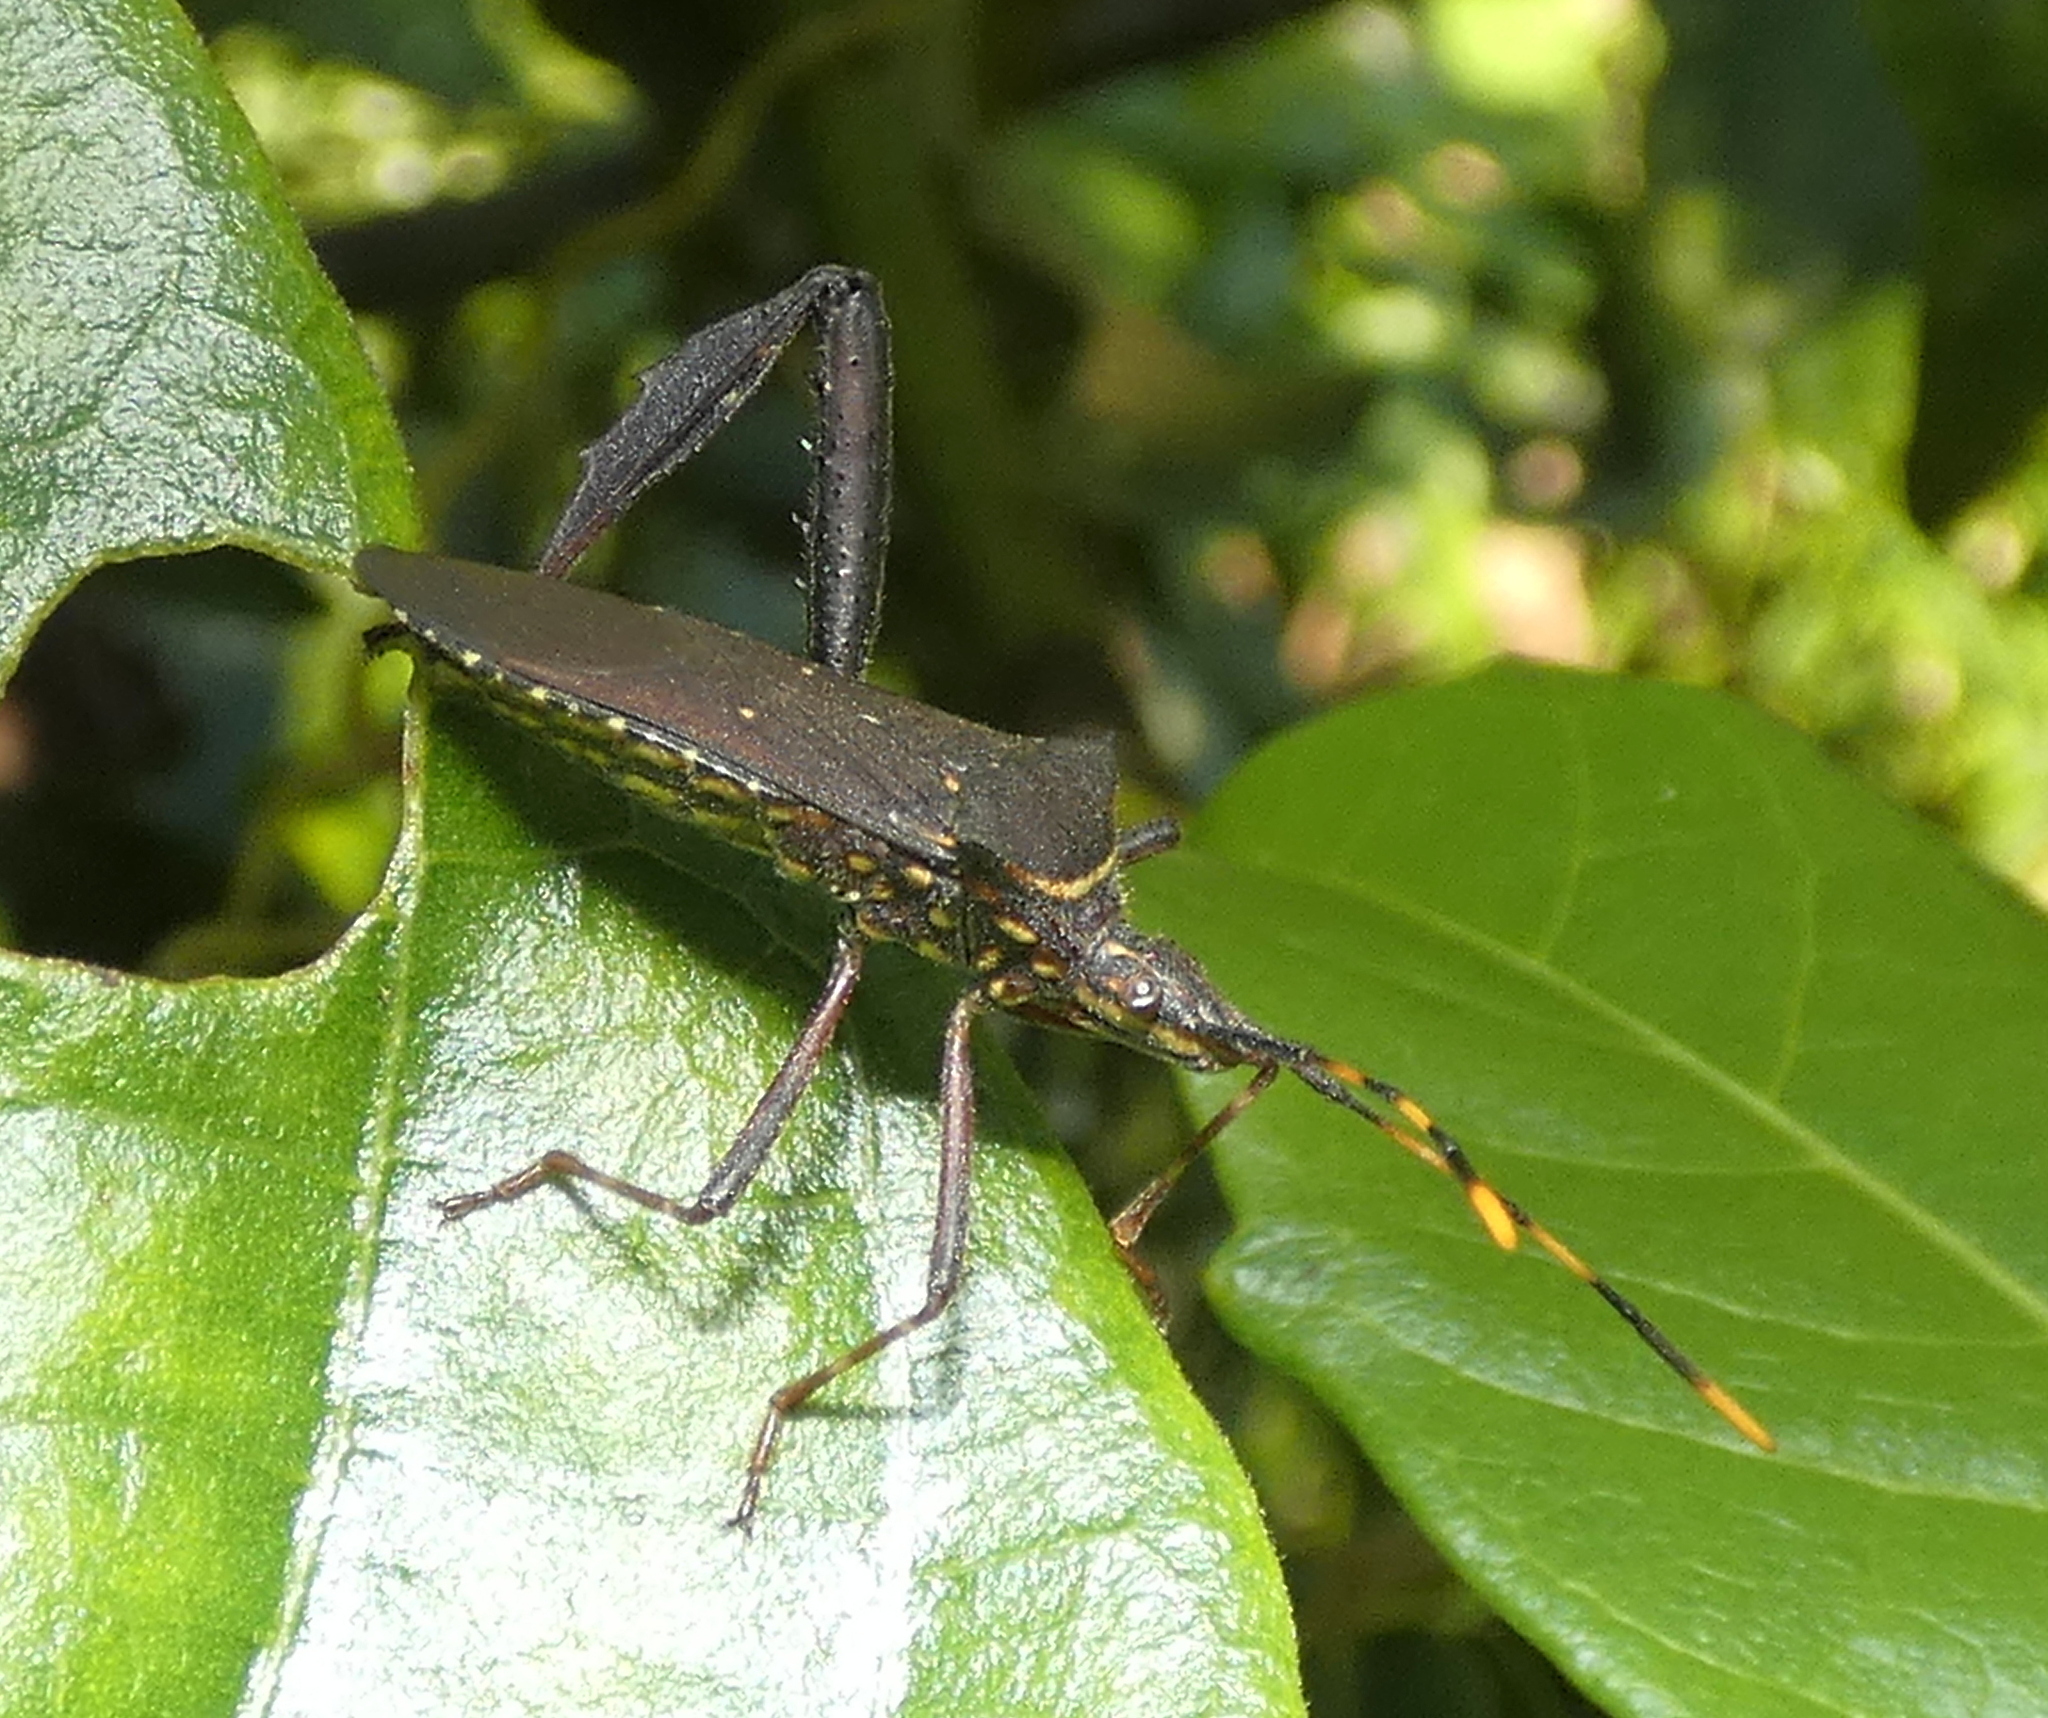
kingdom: Animalia
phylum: Arthropoda
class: Insecta
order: Hemiptera
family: Coreidae
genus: Leptoglossus
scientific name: Leptoglossus gonagra
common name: Citron bug
